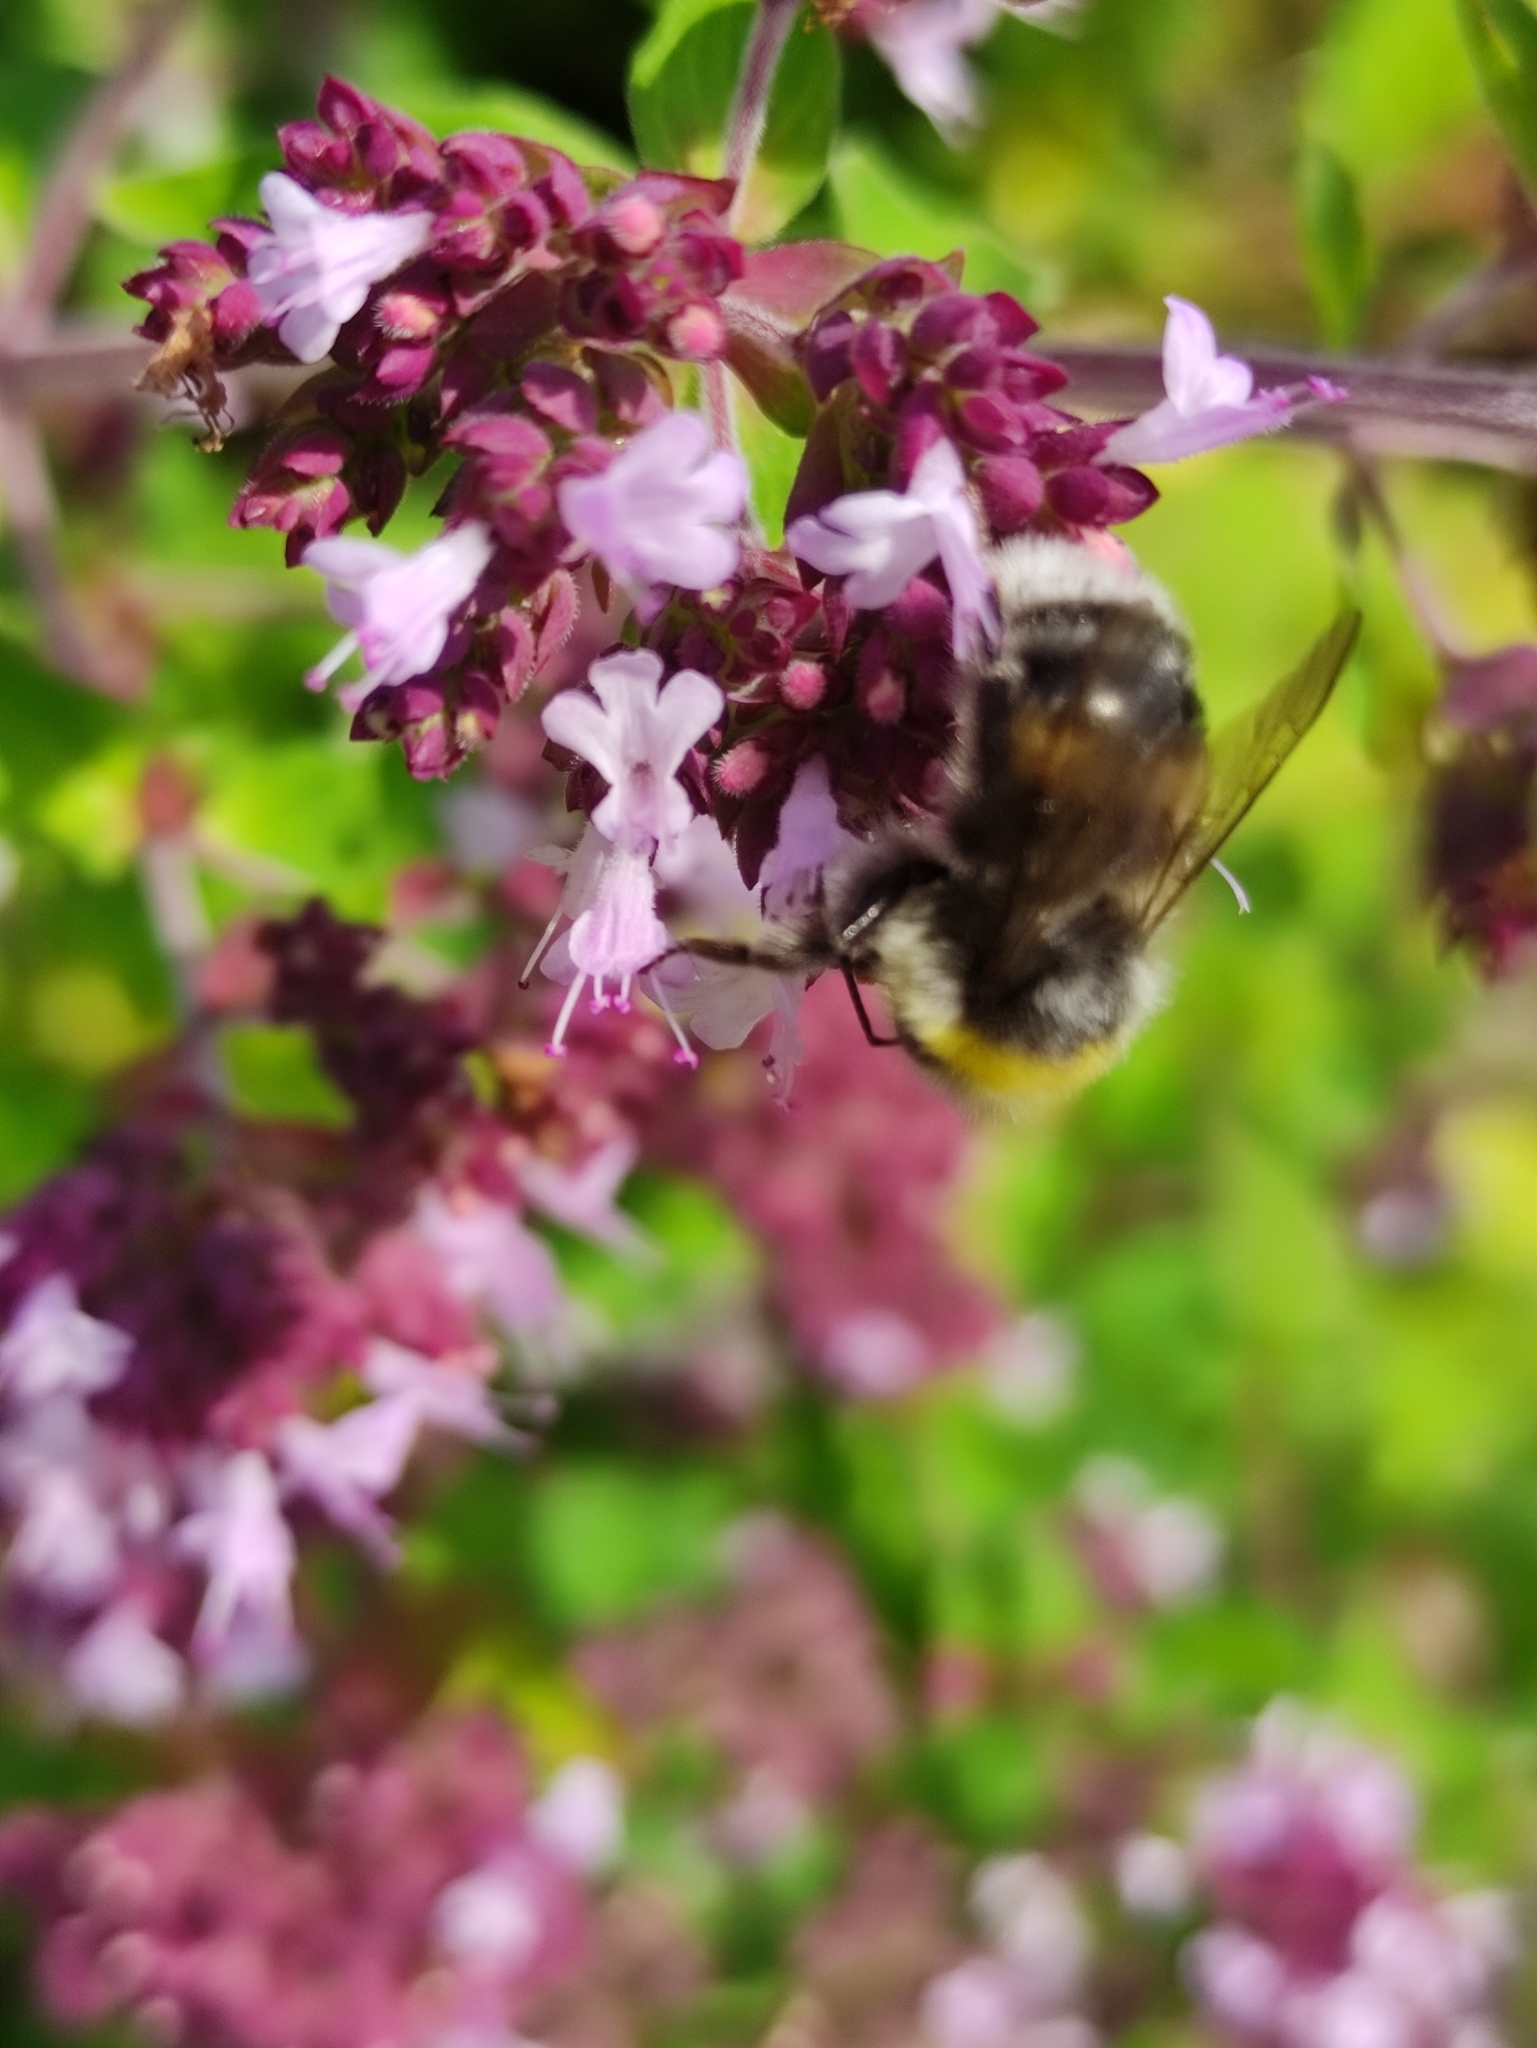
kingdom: Animalia
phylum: Arthropoda
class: Insecta
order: Hymenoptera
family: Apidae
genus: Bombus
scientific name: Bombus lucorum
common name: White-tailed bumblebee
